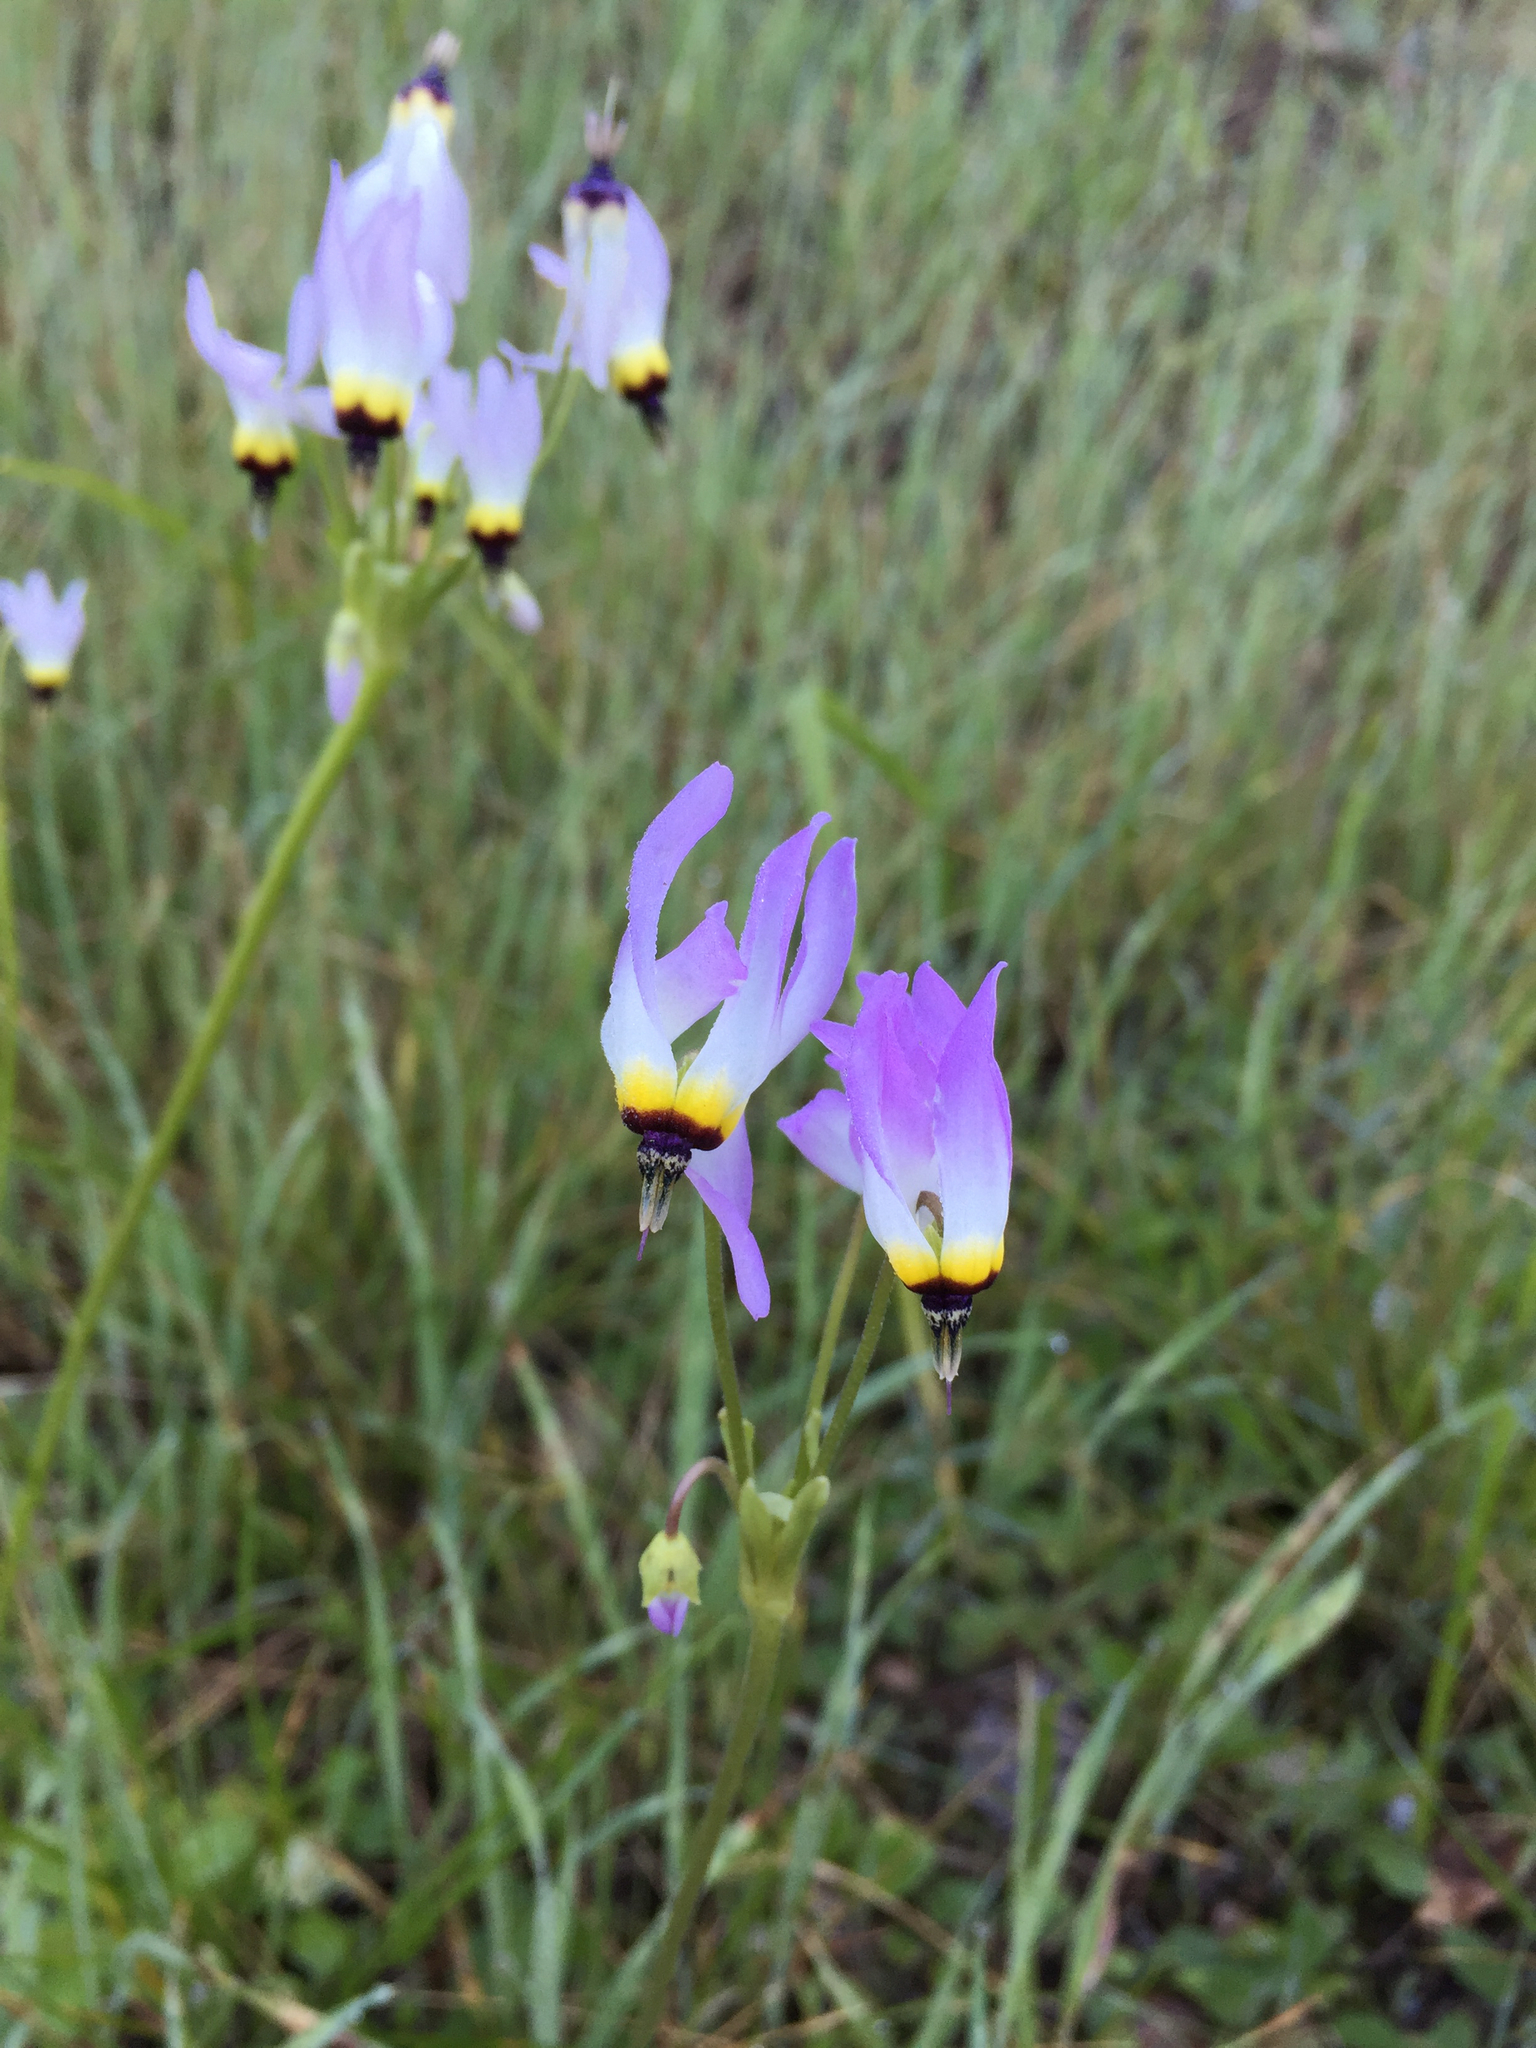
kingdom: Plantae
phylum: Tracheophyta
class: Magnoliopsida
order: Ericales
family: Primulaceae
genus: Dodecatheon
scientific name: Dodecatheon clevelandii
